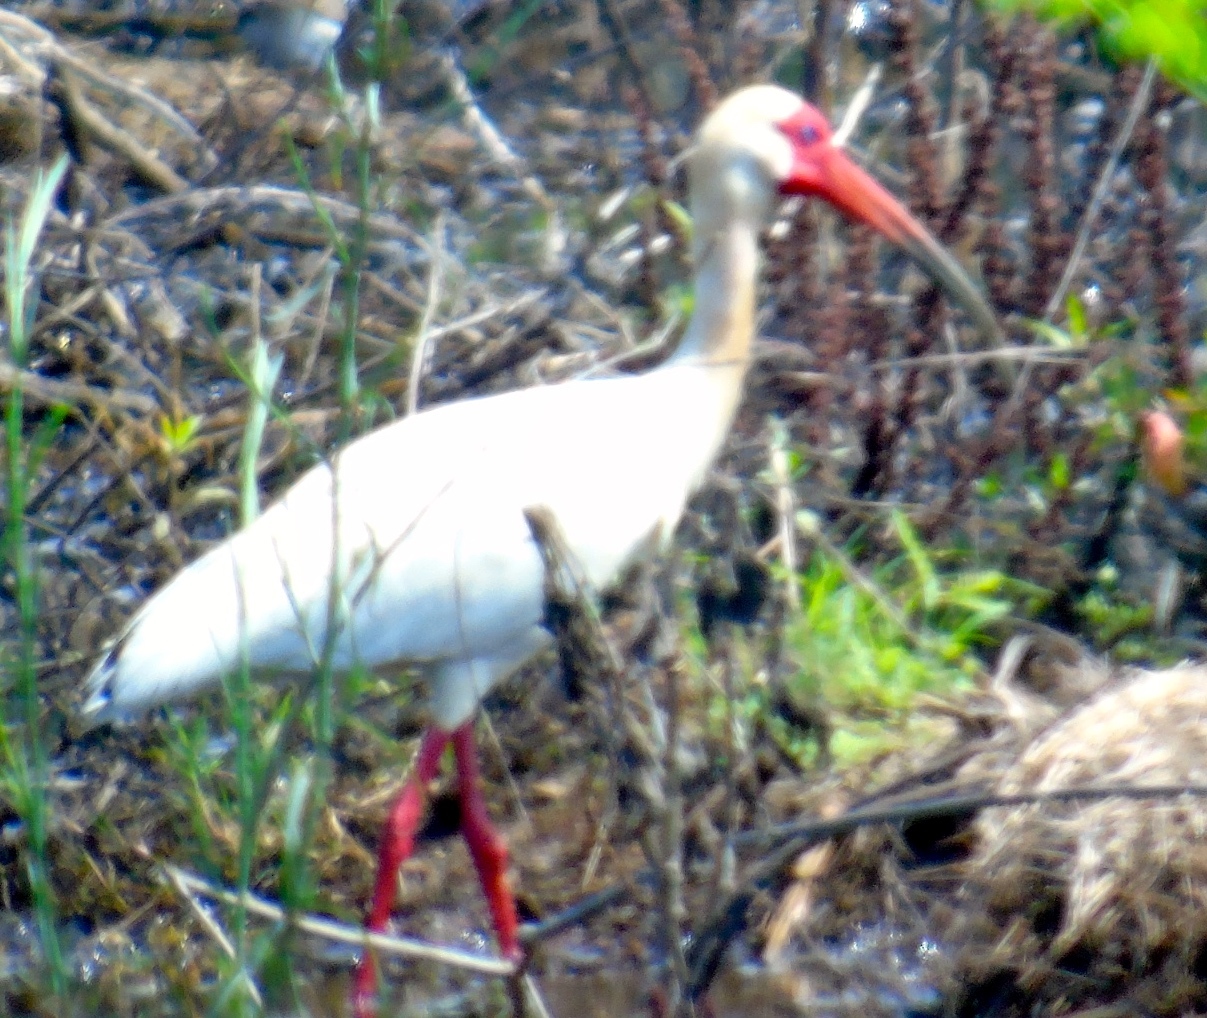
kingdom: Animalia
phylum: Chordata
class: Aves
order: Pelecaniformes
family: Threskiornithidae
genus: Eudocimus
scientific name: Eudocimus albus
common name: White ibis
